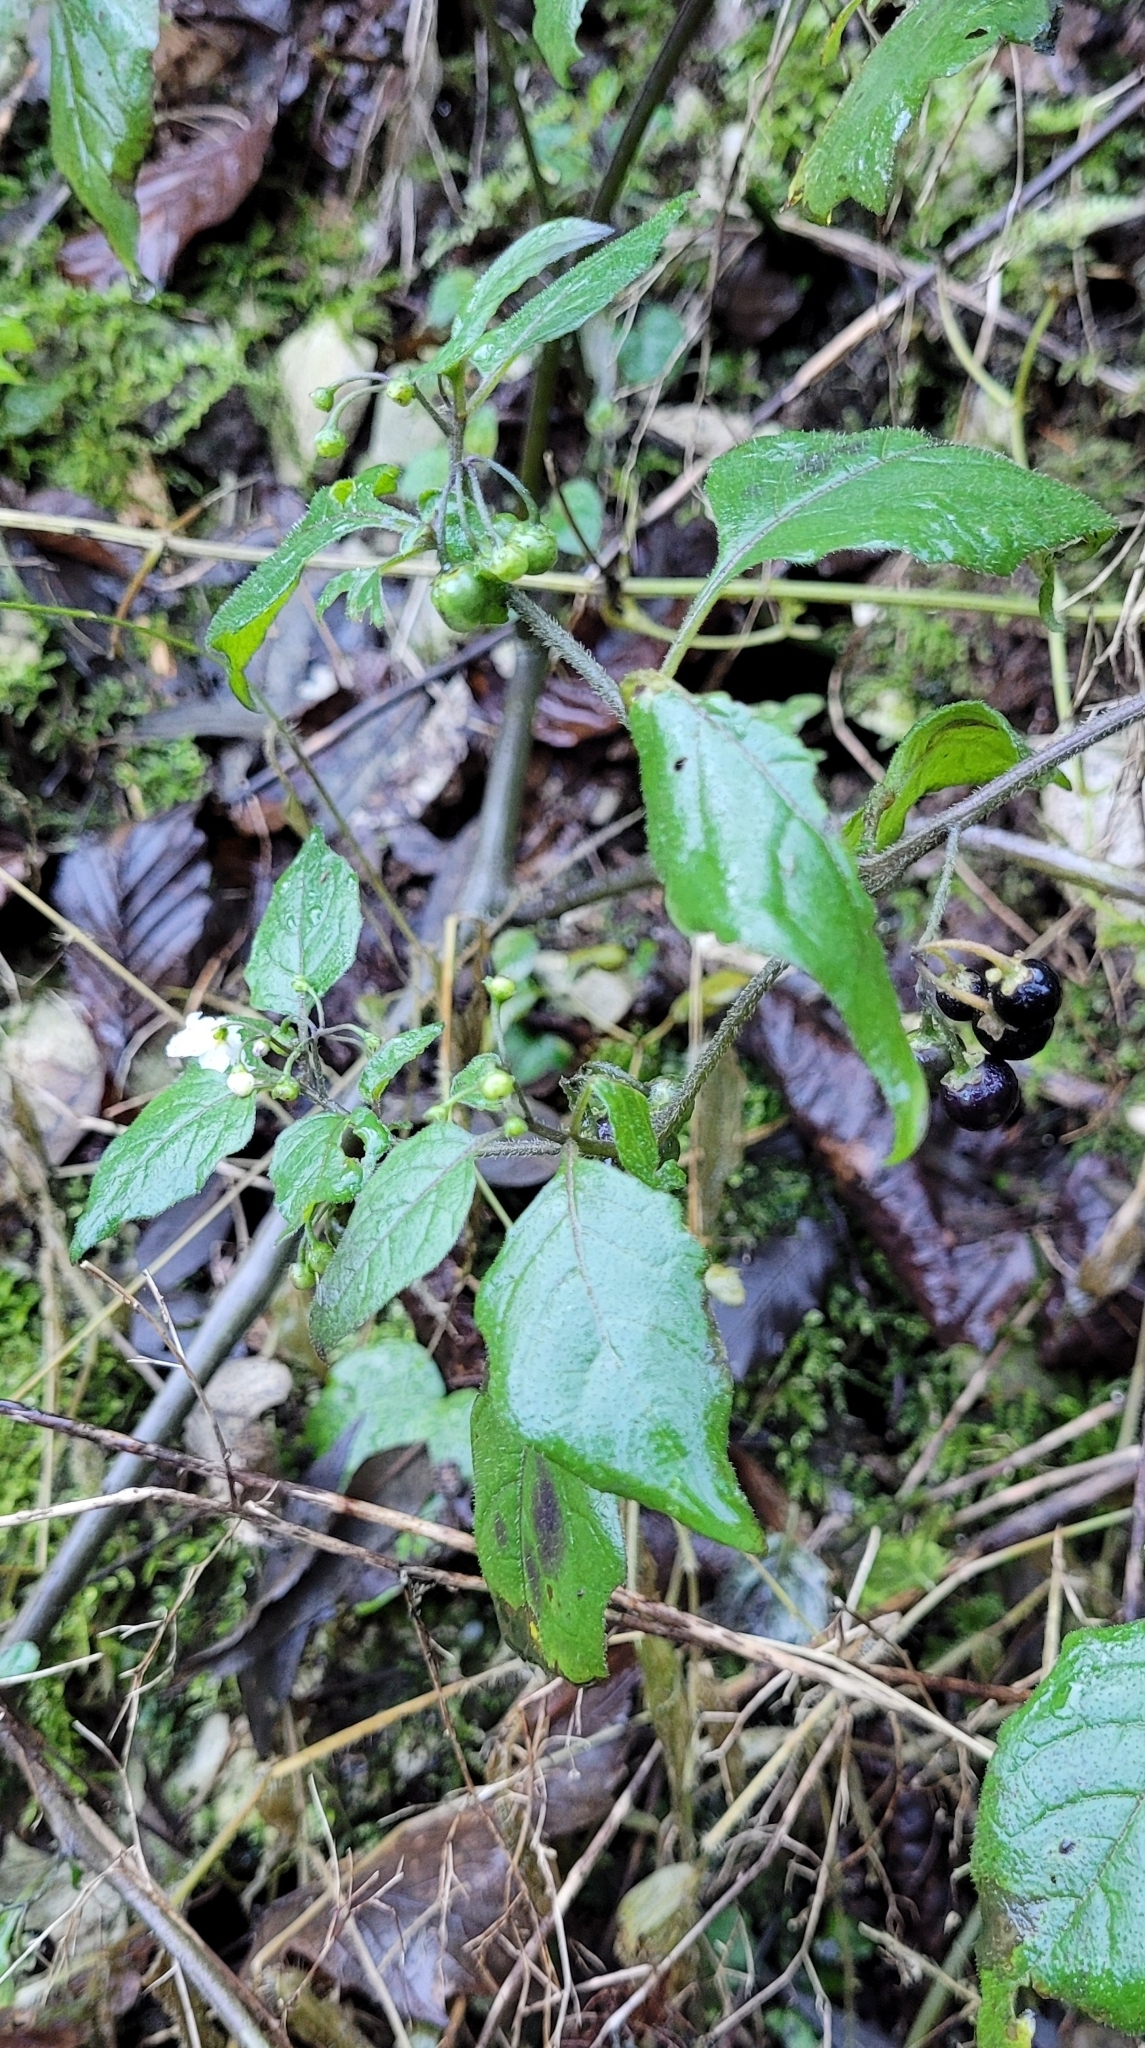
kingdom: Plantae
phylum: Tracheophyta
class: Magnoliopsida
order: Solanales
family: Solanaceae
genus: Solanum
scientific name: Solanum nigrum
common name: Black nightshade
